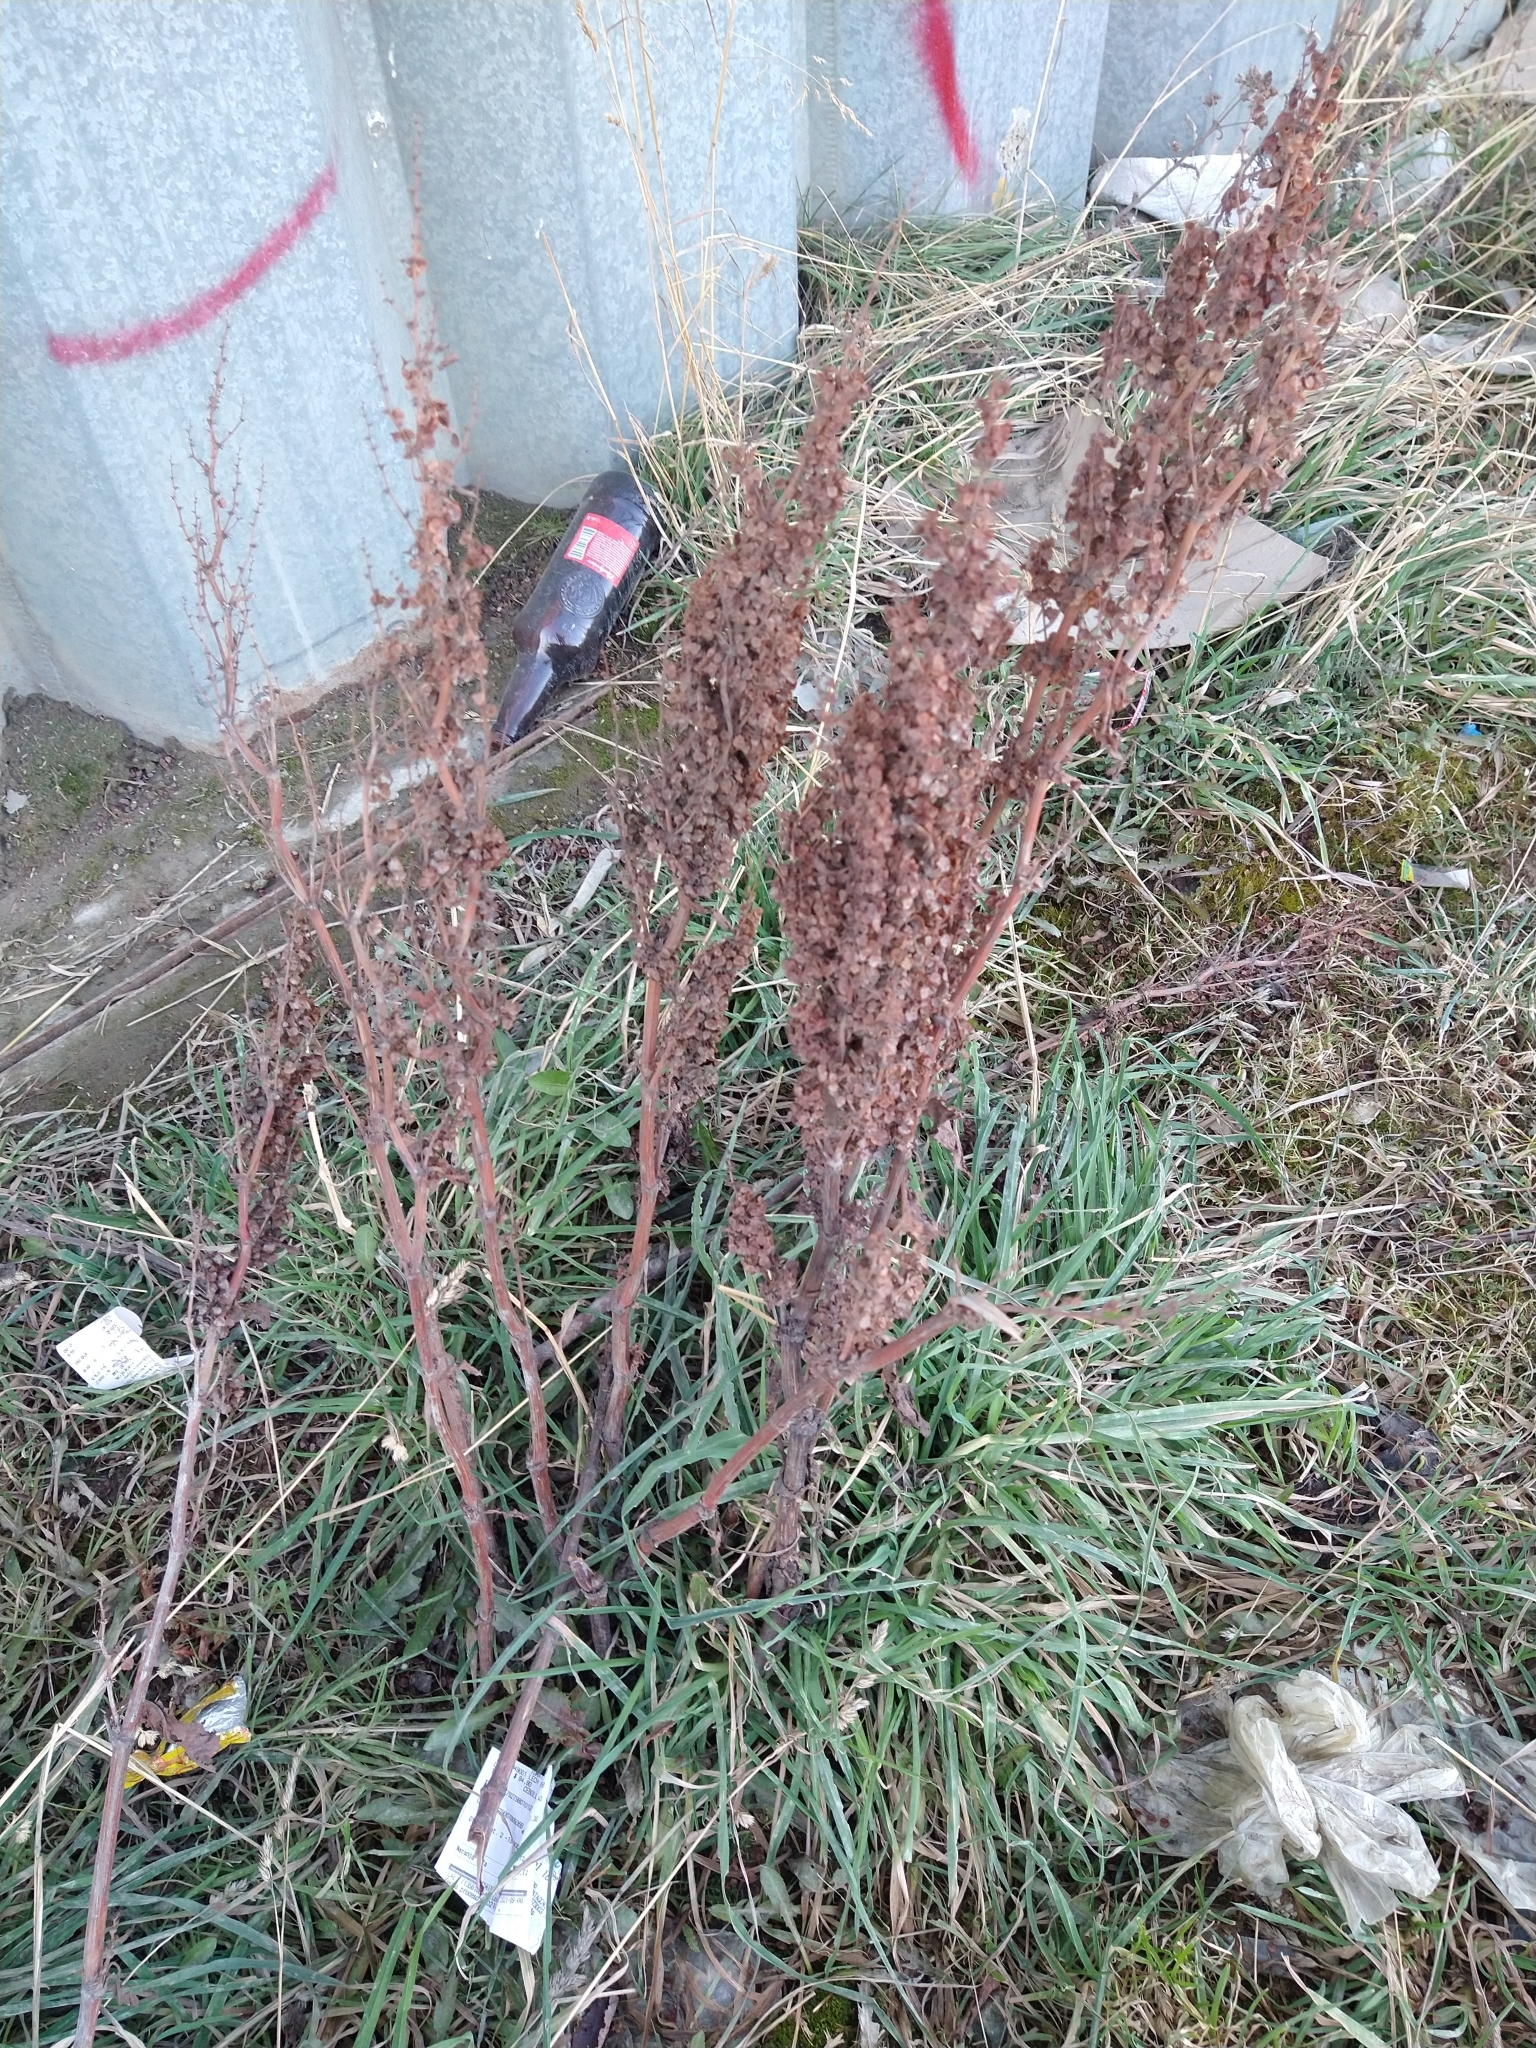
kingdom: Plantae
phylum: Tracheophyta
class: Magnoliopsida
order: Caryophyllales
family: Polygonaceae
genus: Rumex
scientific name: Rumex crispus
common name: Curled dock
